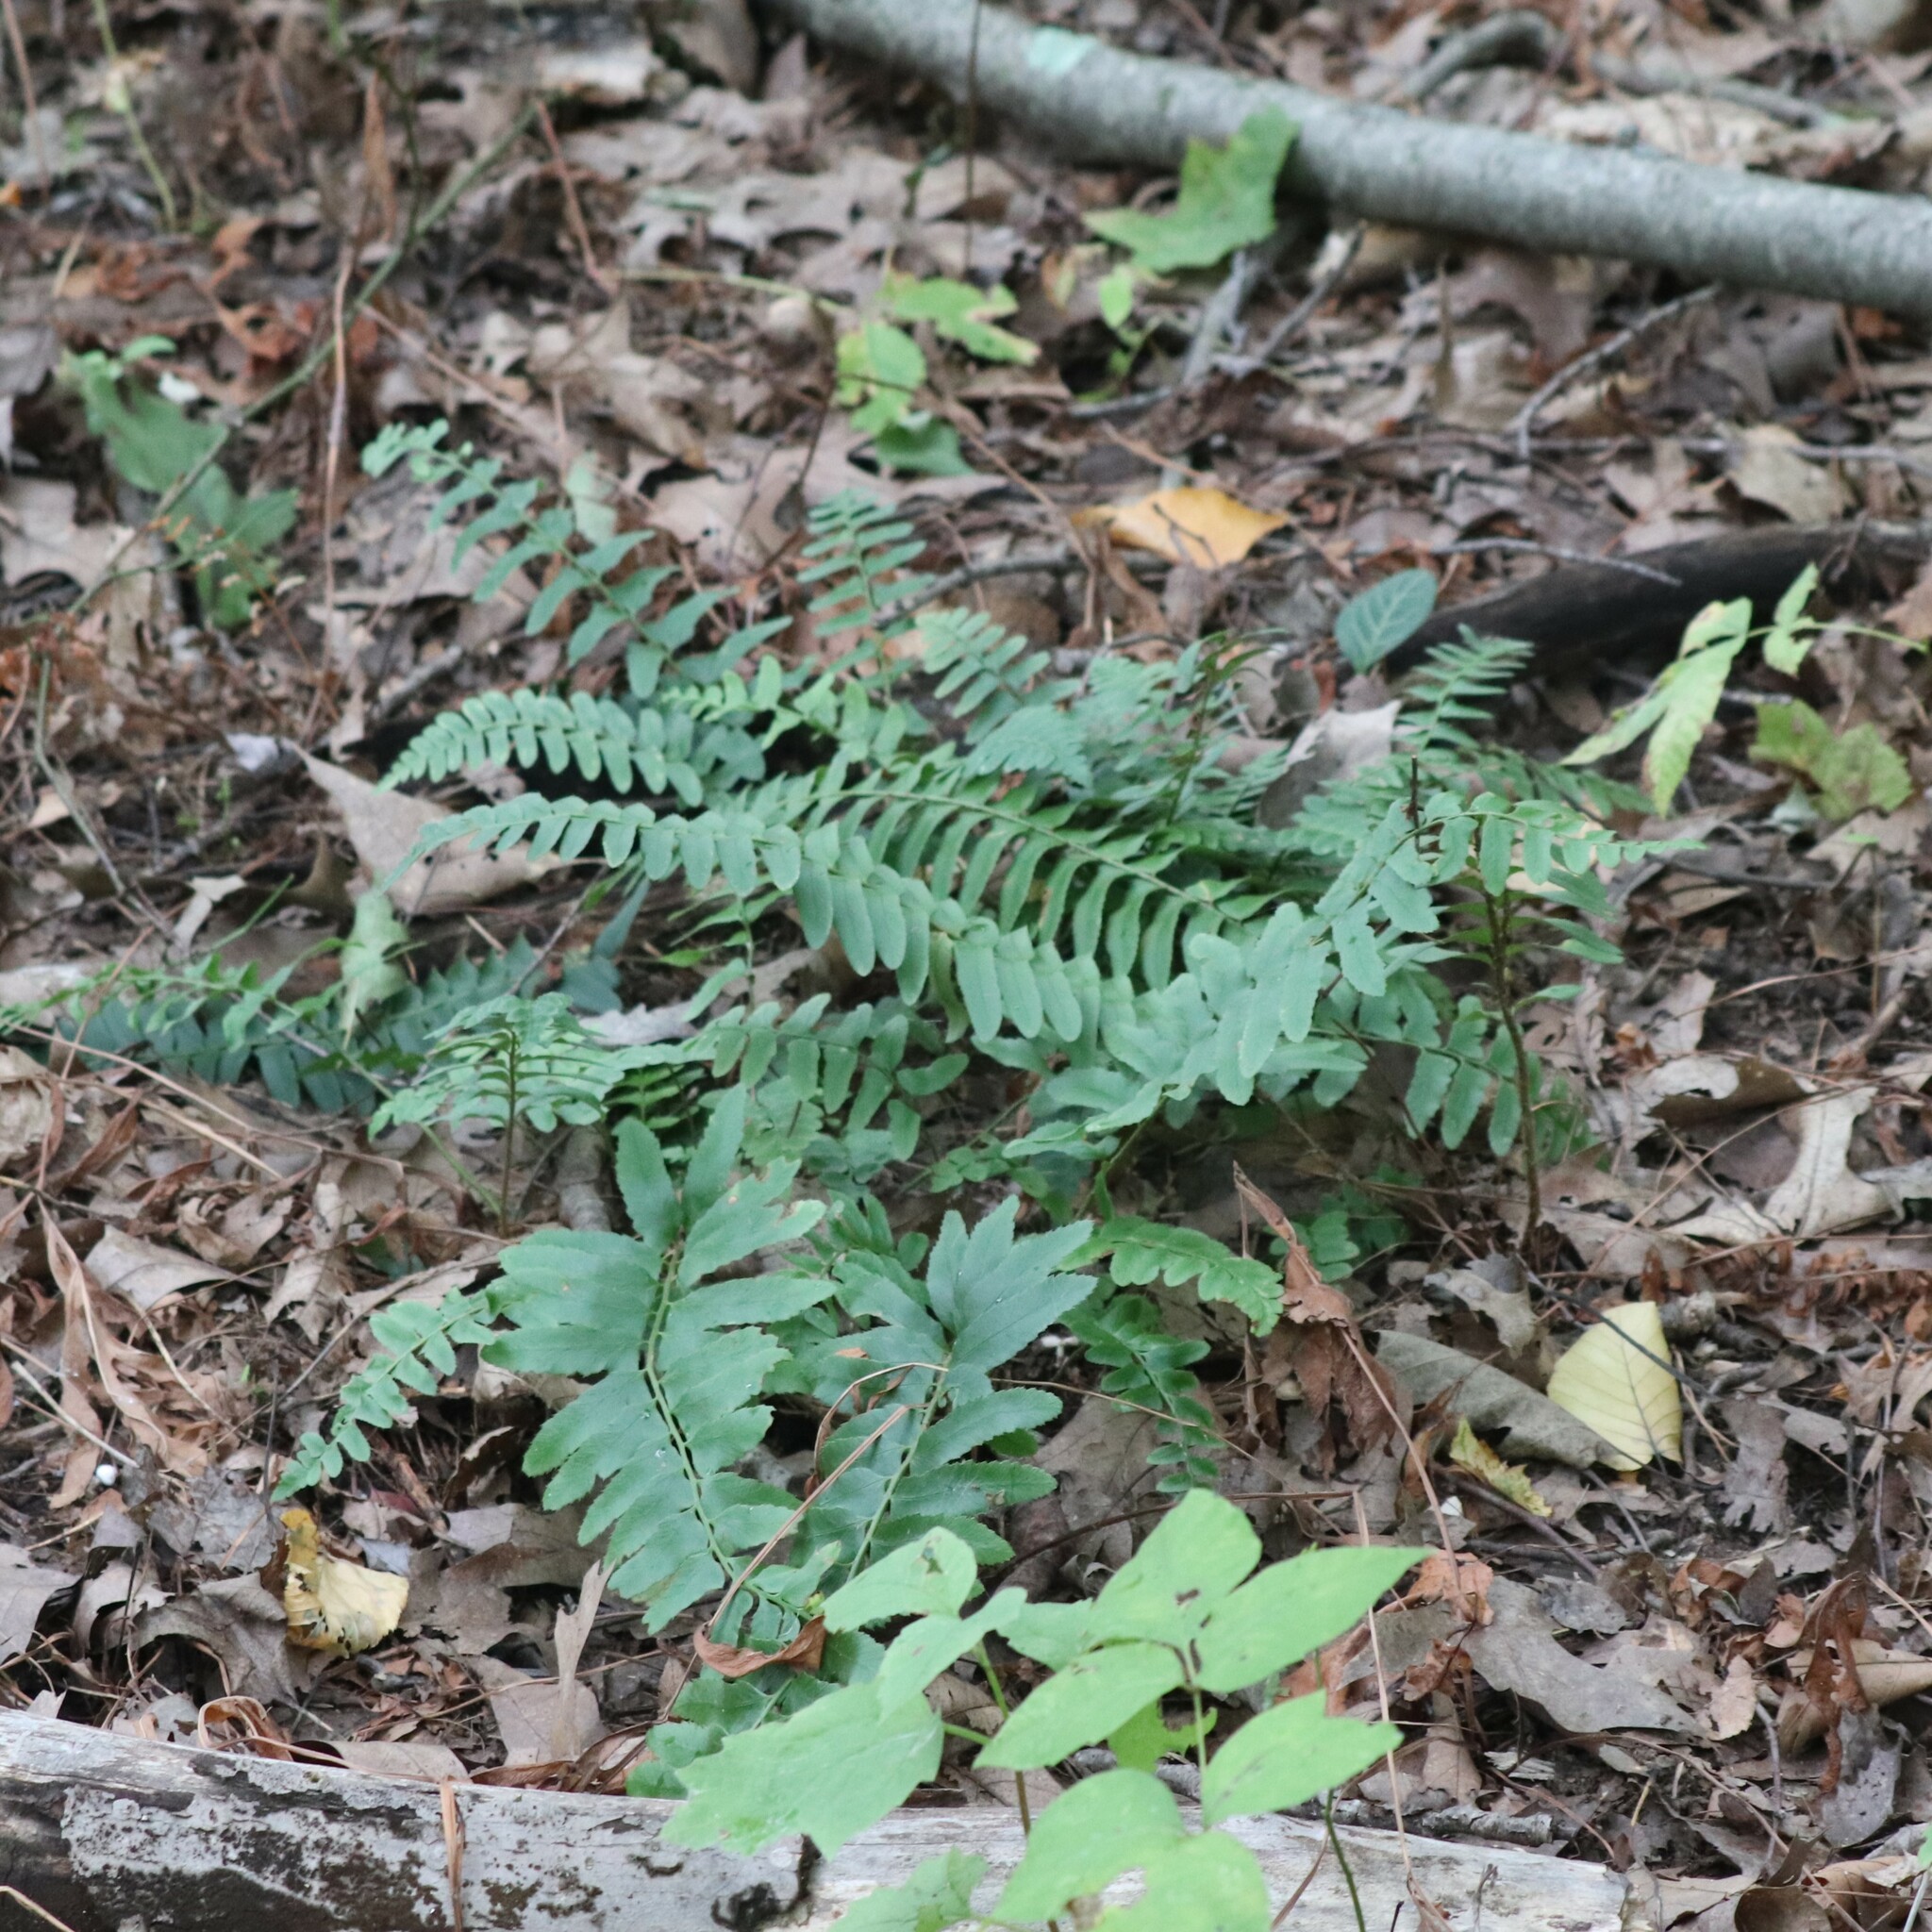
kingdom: Plantae
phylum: Tracheophyta
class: Polypodiopsida
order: Polypodiales
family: Dryopteridaceae
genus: Polystichum
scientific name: Polystichum acrostichoides
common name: Christmas fern
